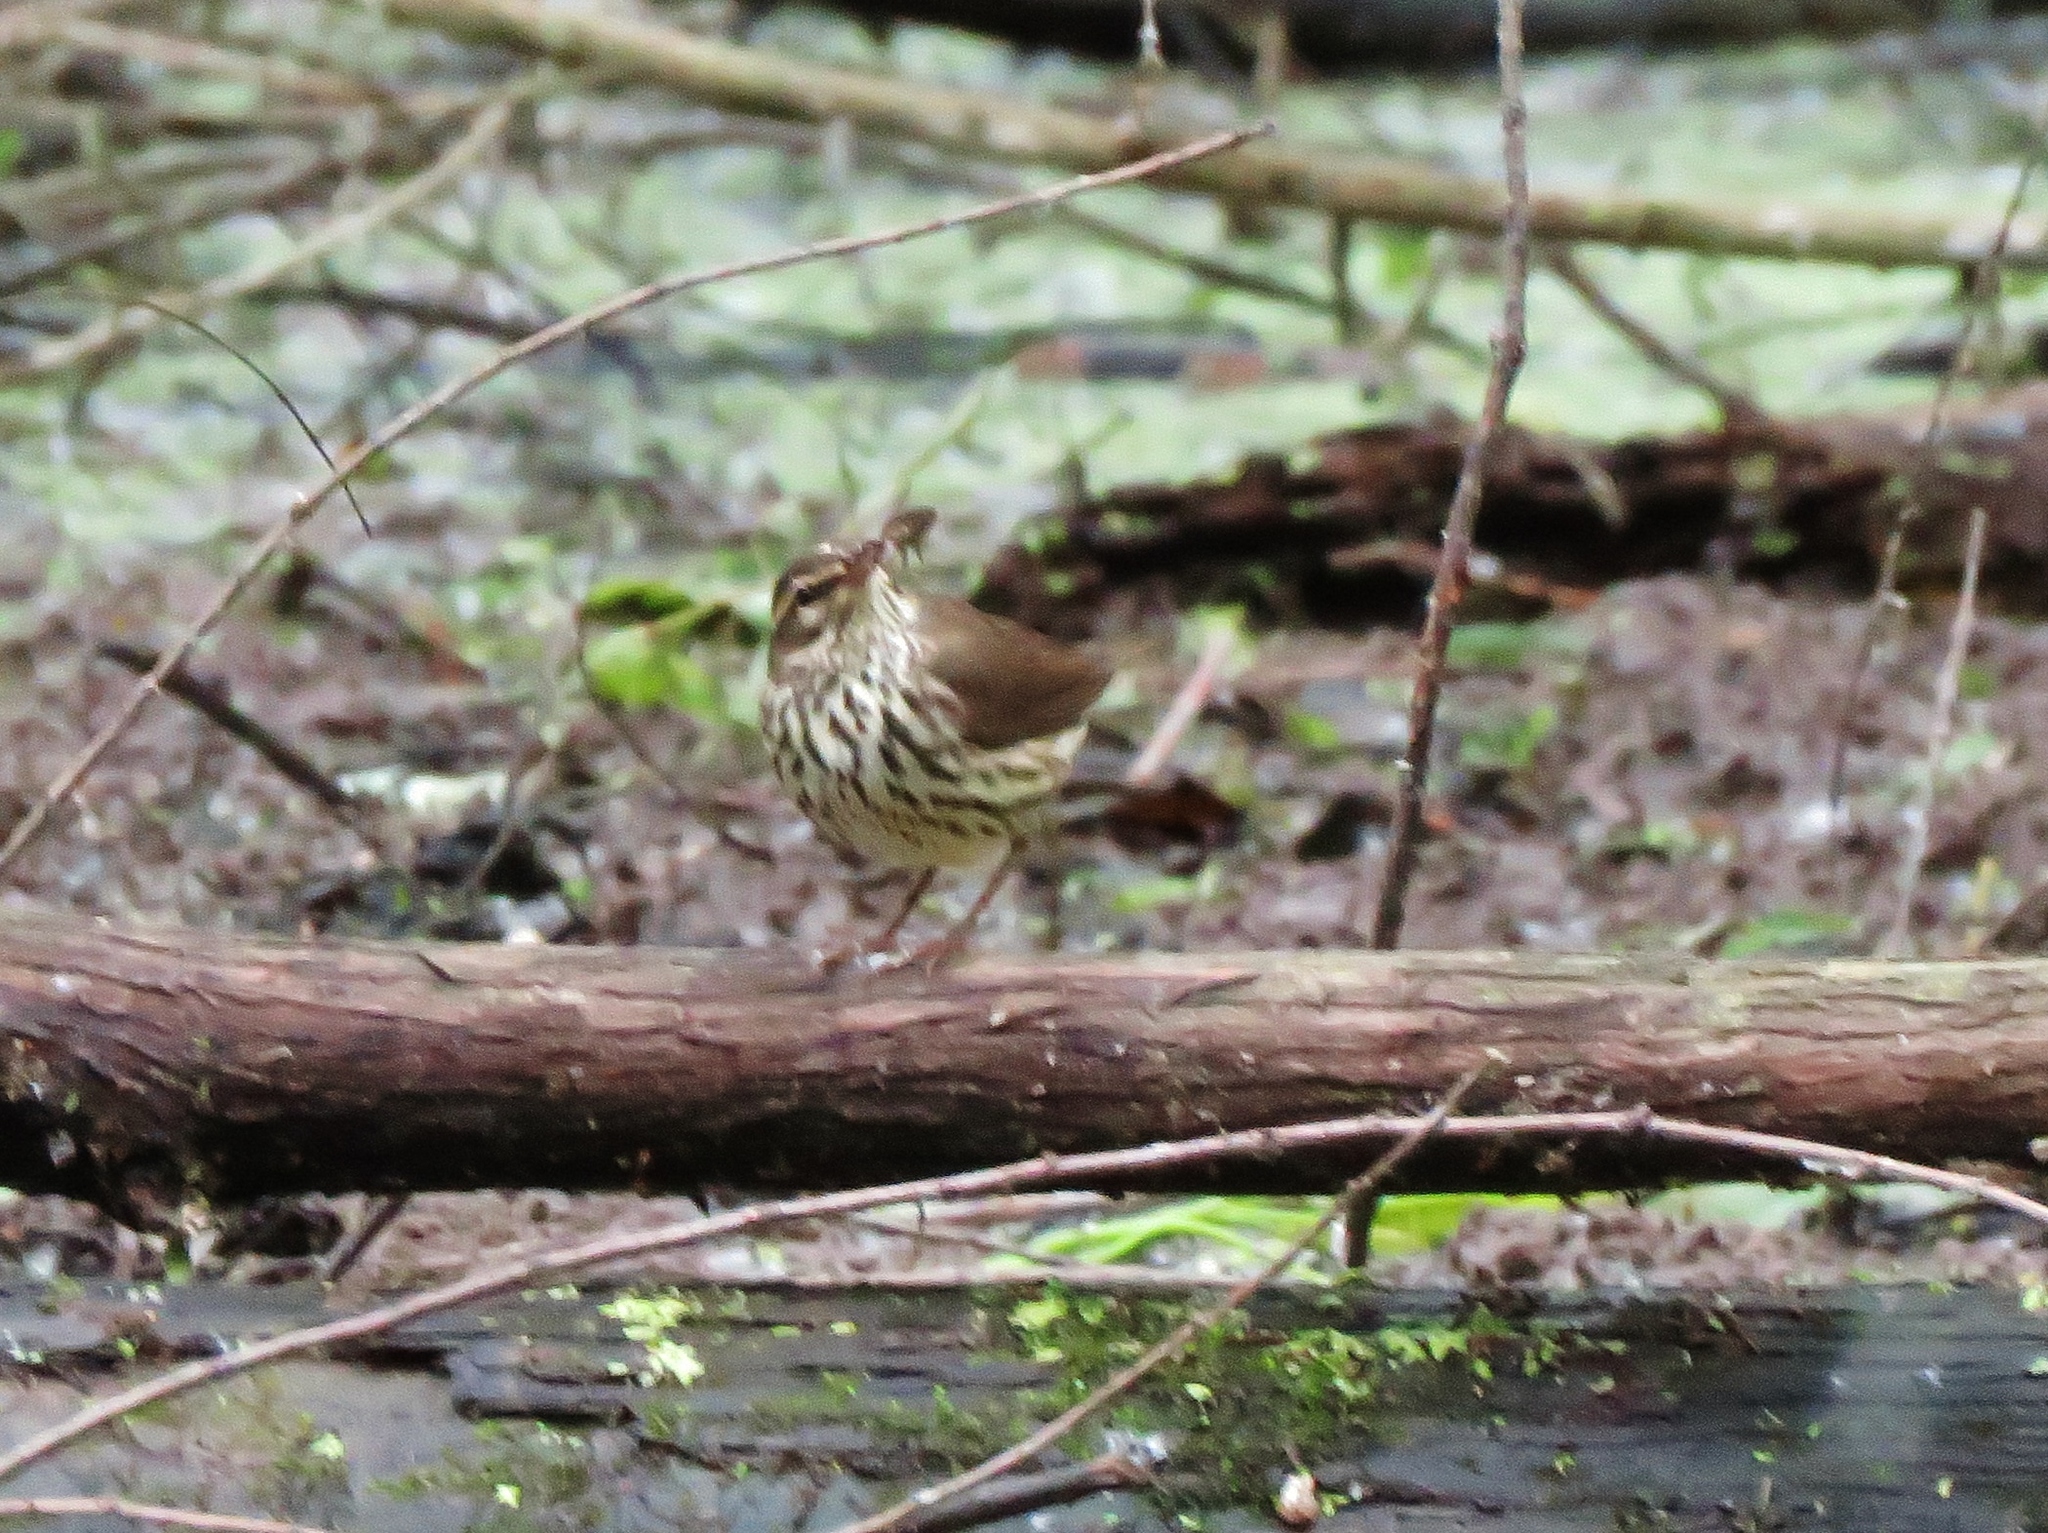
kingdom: Animalia
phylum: Chordata
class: Aves
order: Passeriformes
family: Parulidae
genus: Parkesia
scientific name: Parkesia noveboracensis
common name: Northern waterthrush
